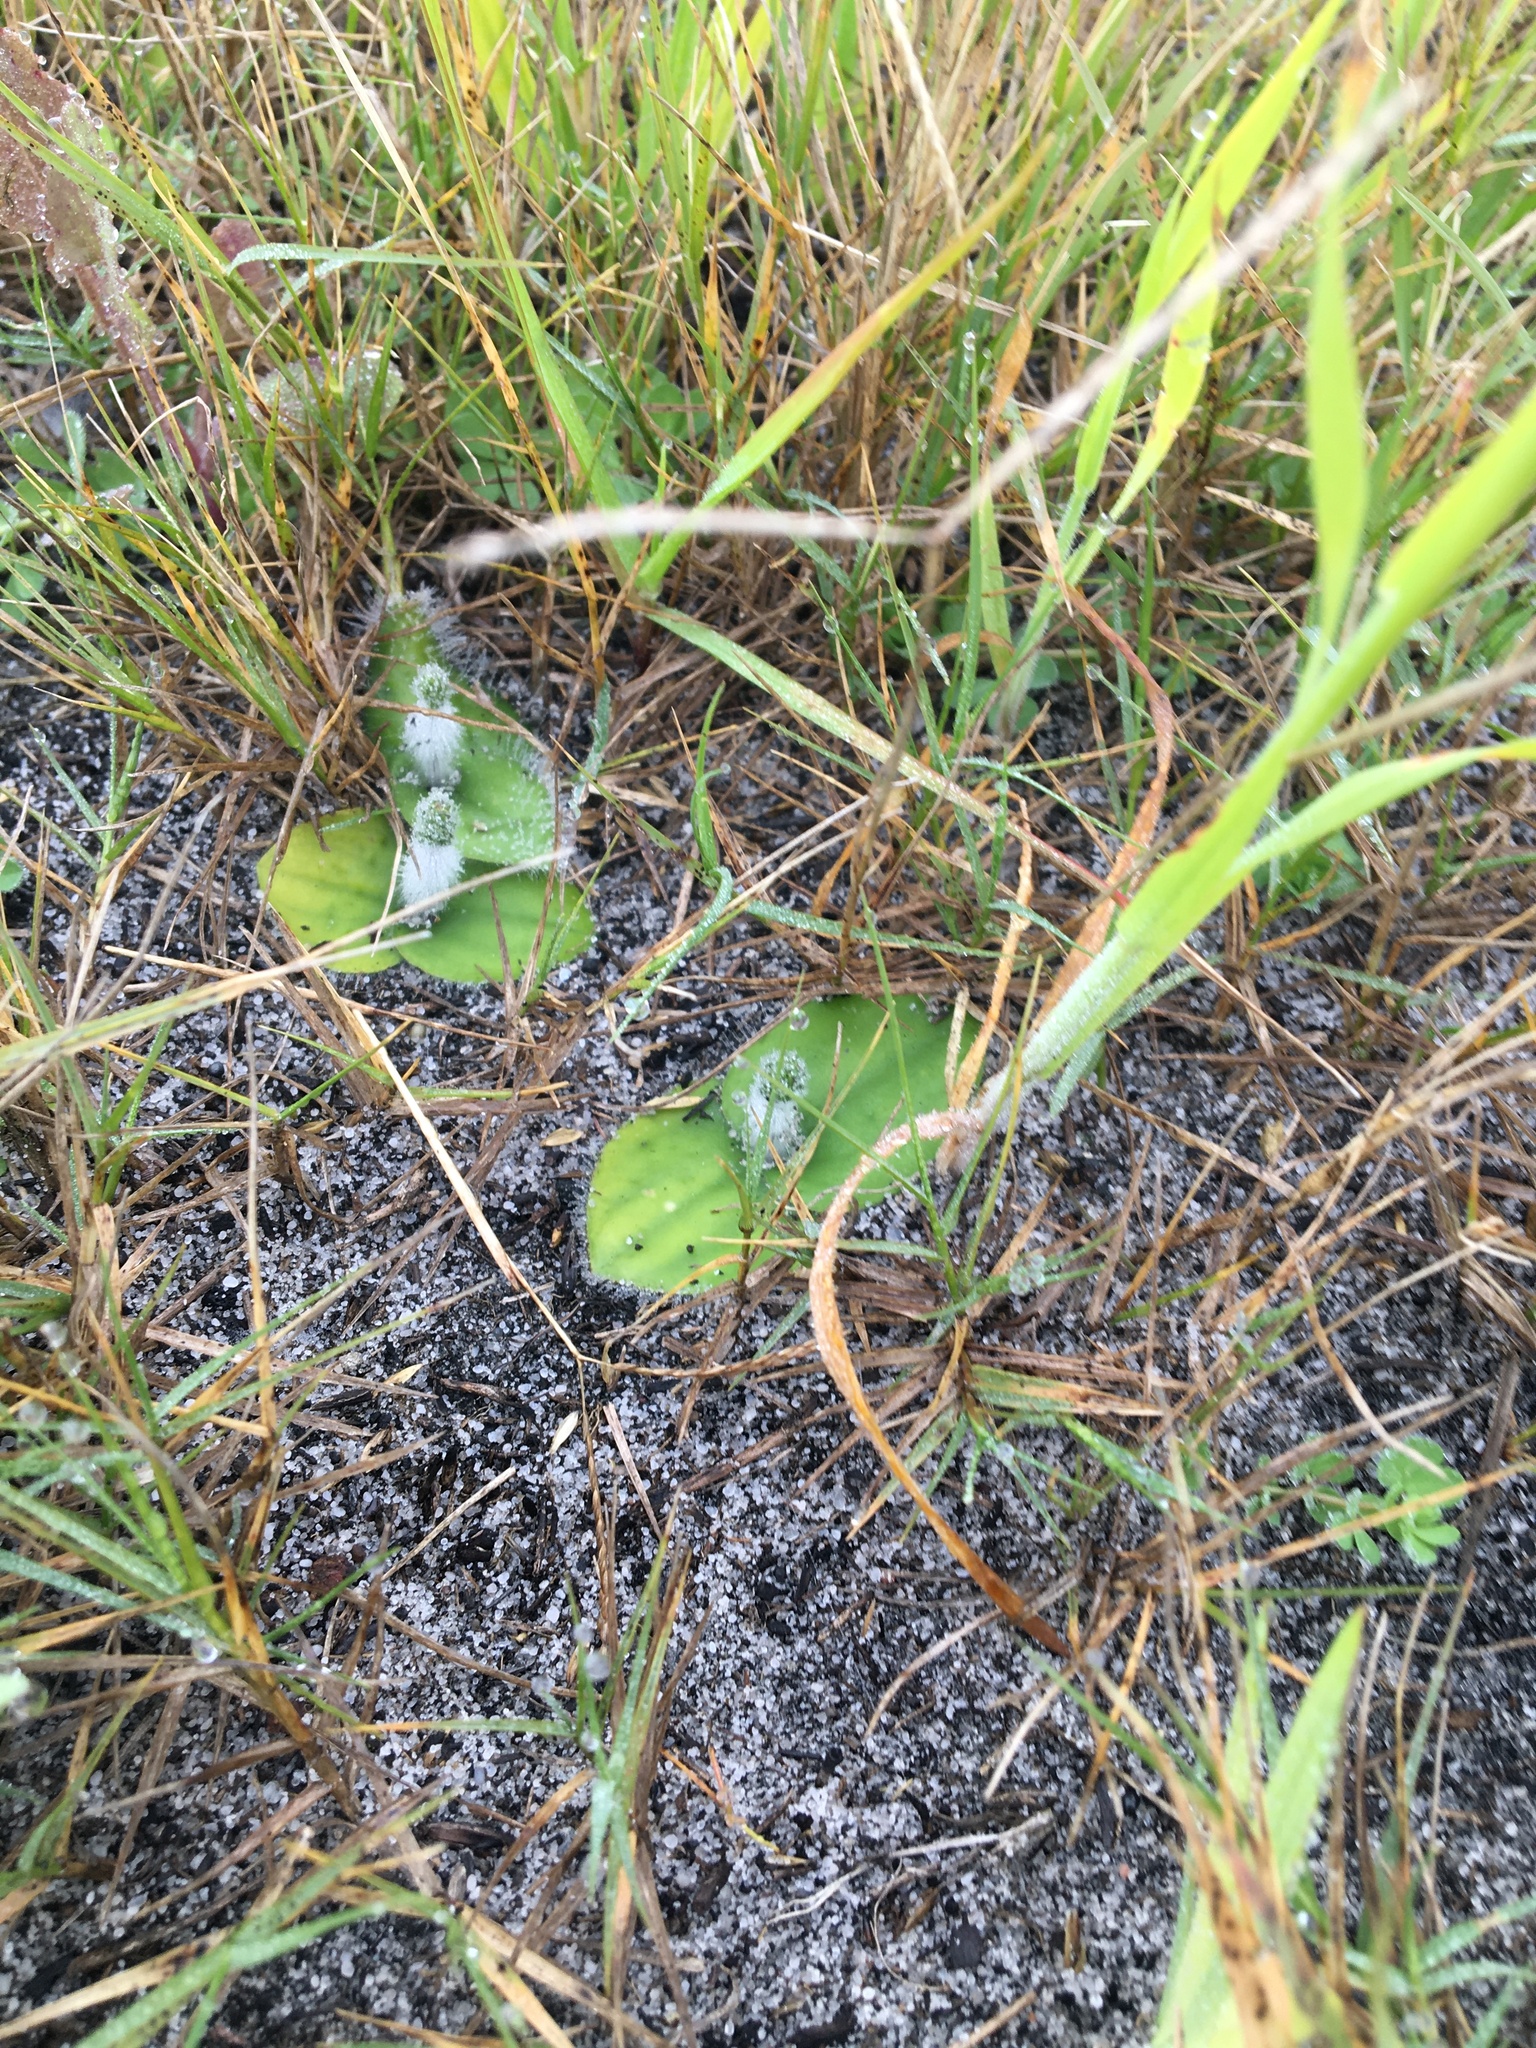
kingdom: Plantae
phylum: Tracheophyta
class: Liliopsida
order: Asparagales
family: Orchidaceae
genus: Holothrix
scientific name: Holothrix villosa
